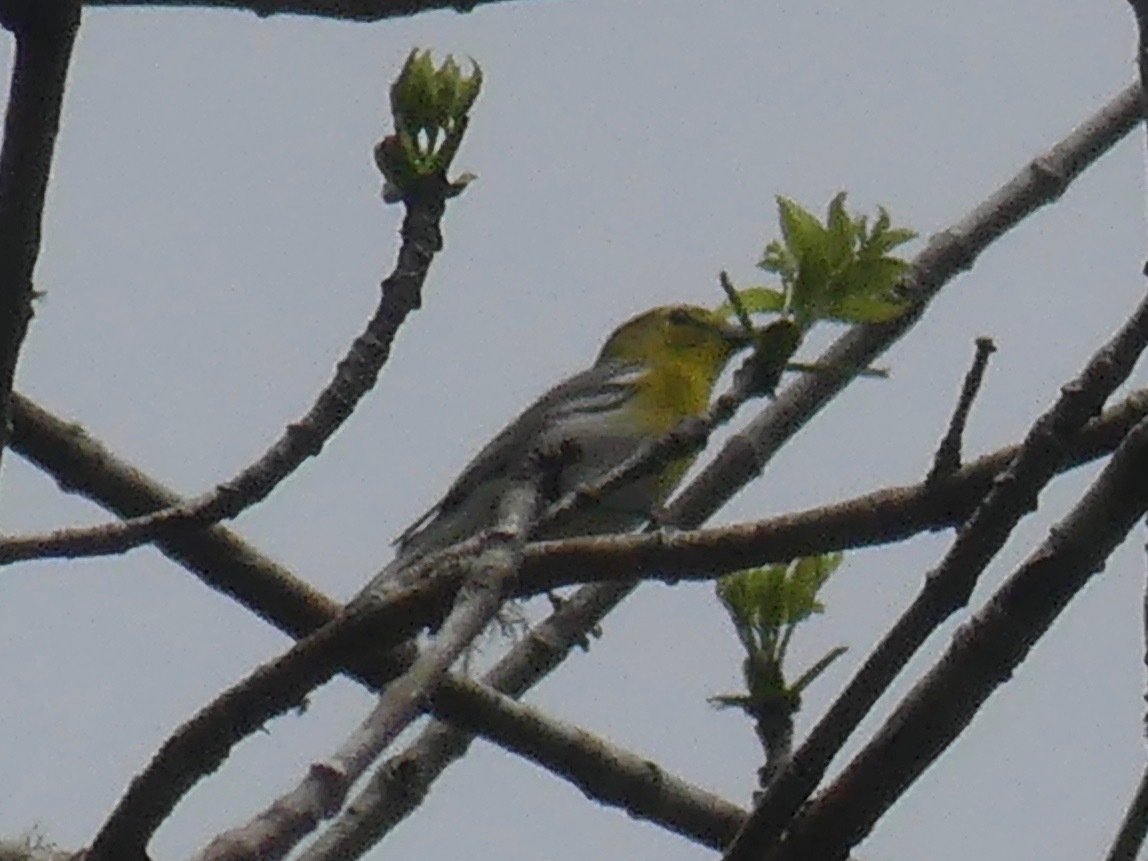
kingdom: Animalia
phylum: Chordata
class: Aves
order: Passeriformes
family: Vireonidae
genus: Vireo
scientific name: Vireo flavifrons
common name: Yellow-throated vireo
